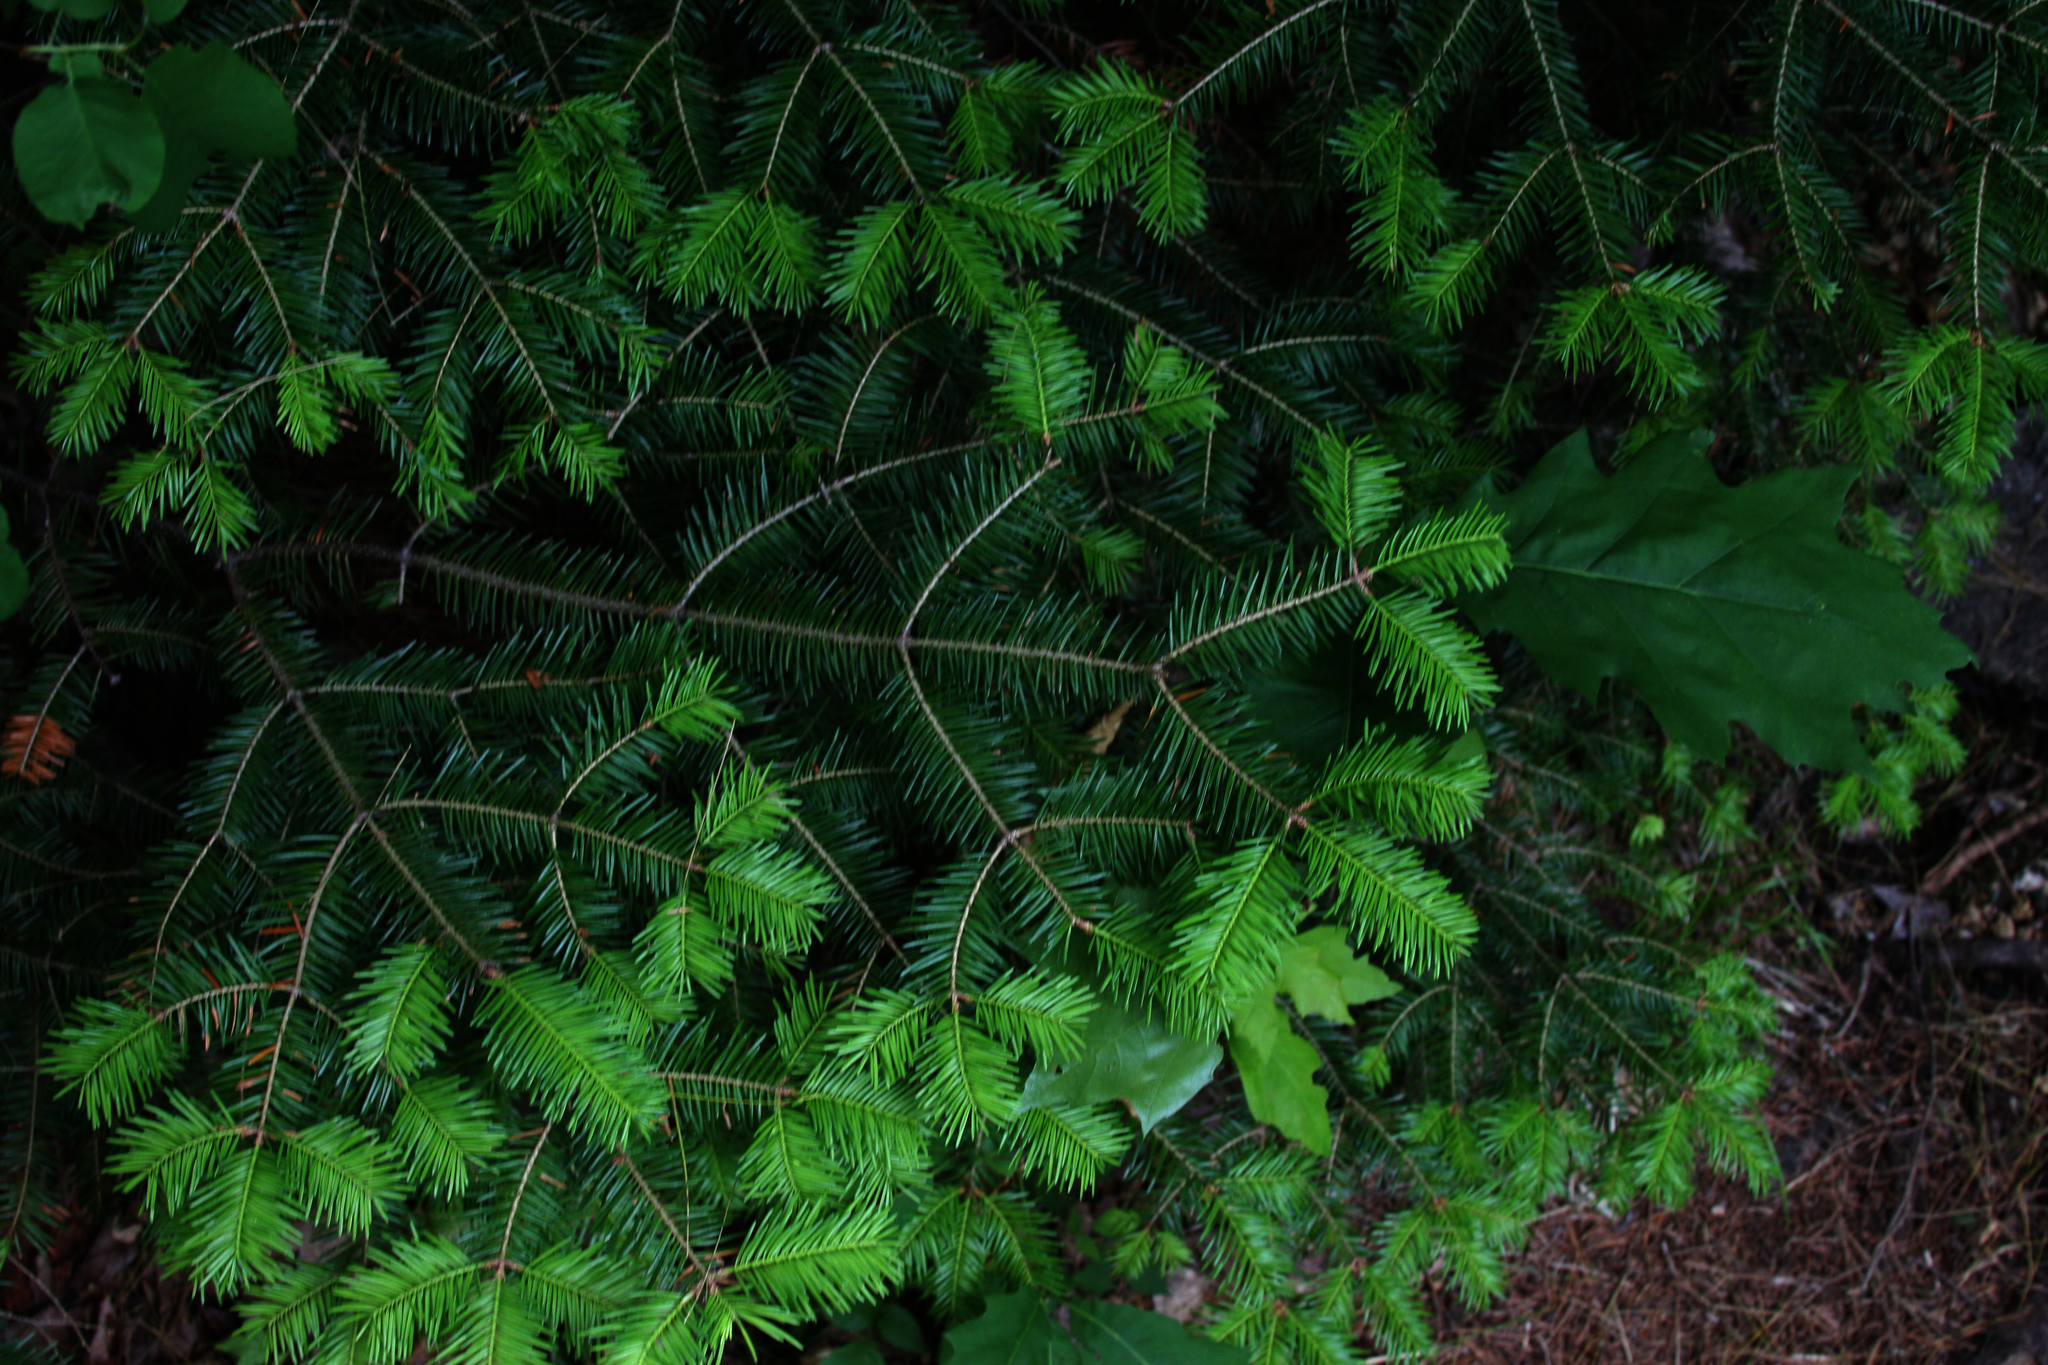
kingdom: Plantae
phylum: Tracheophyta
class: Pinopsida
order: Pinales
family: Pinaceae
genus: Abies
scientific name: Abies balsamea
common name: Balsam fir
